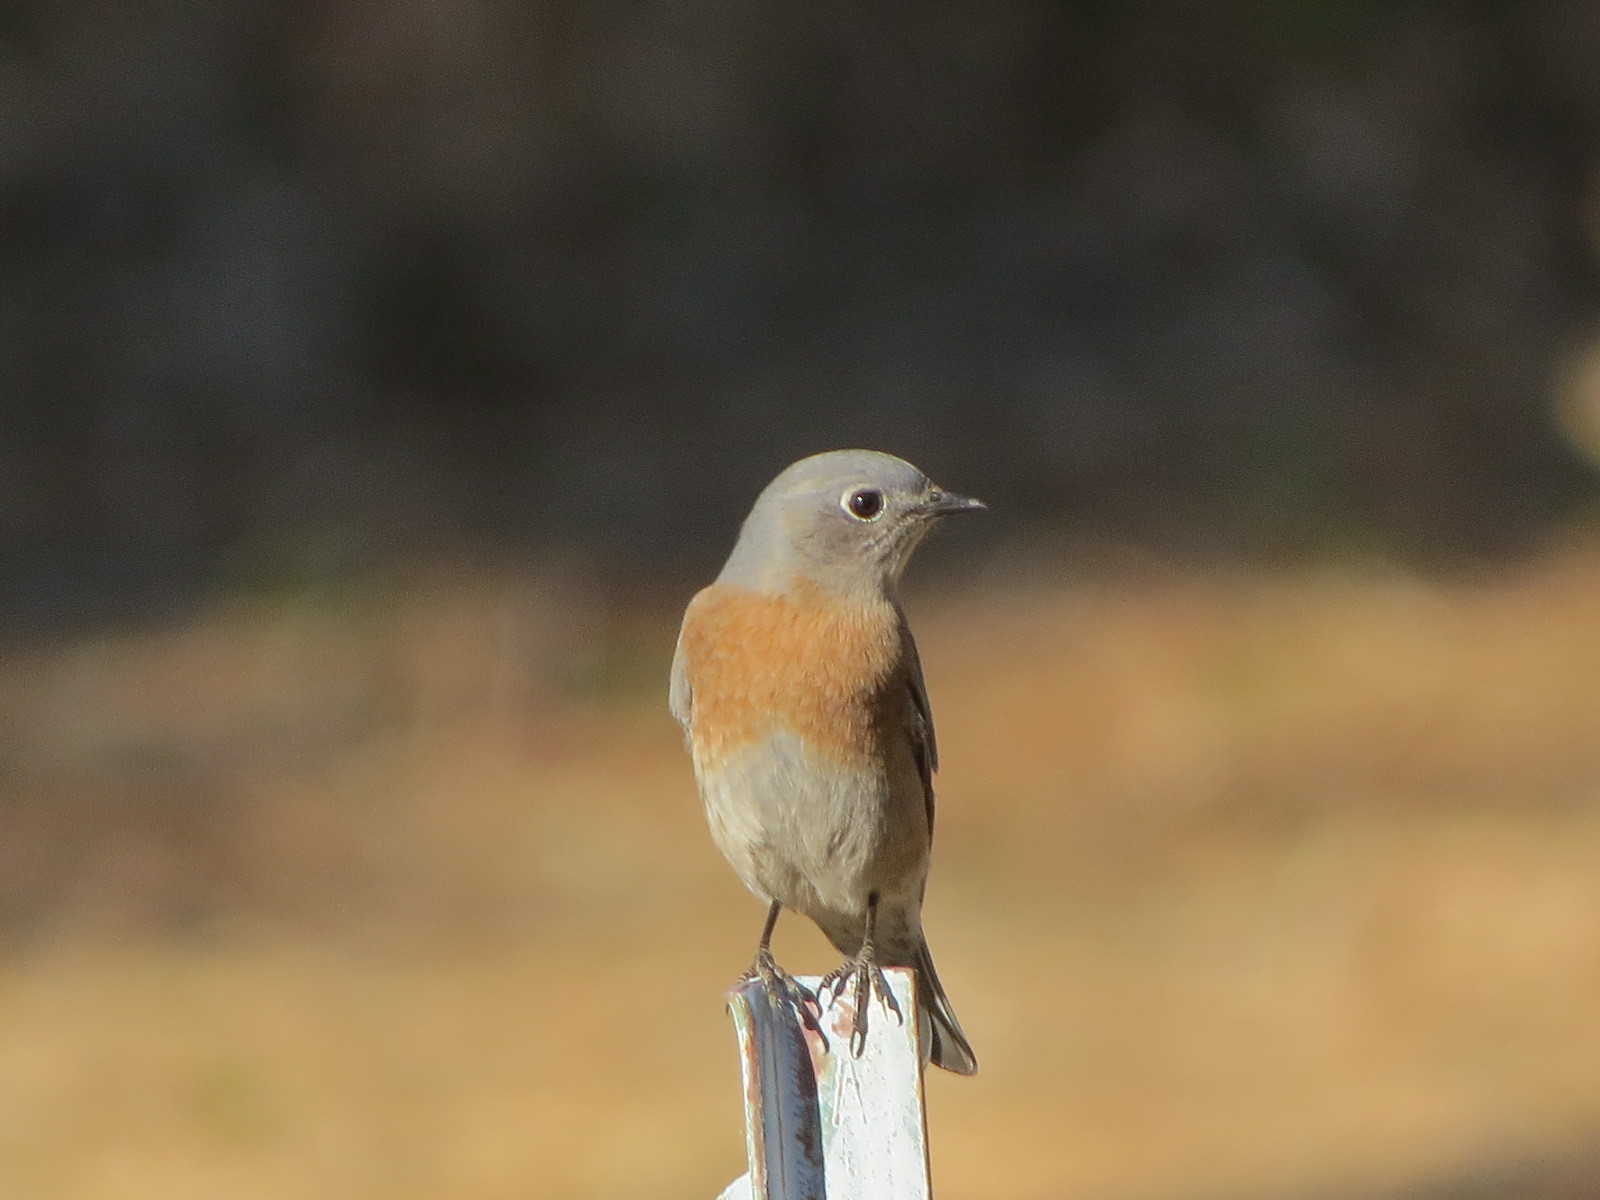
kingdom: Animalia
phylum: Chordata
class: Aves
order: Passeriformes
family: Turdidae
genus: Sialia
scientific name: Sialia mexicana
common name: Western bluebird
